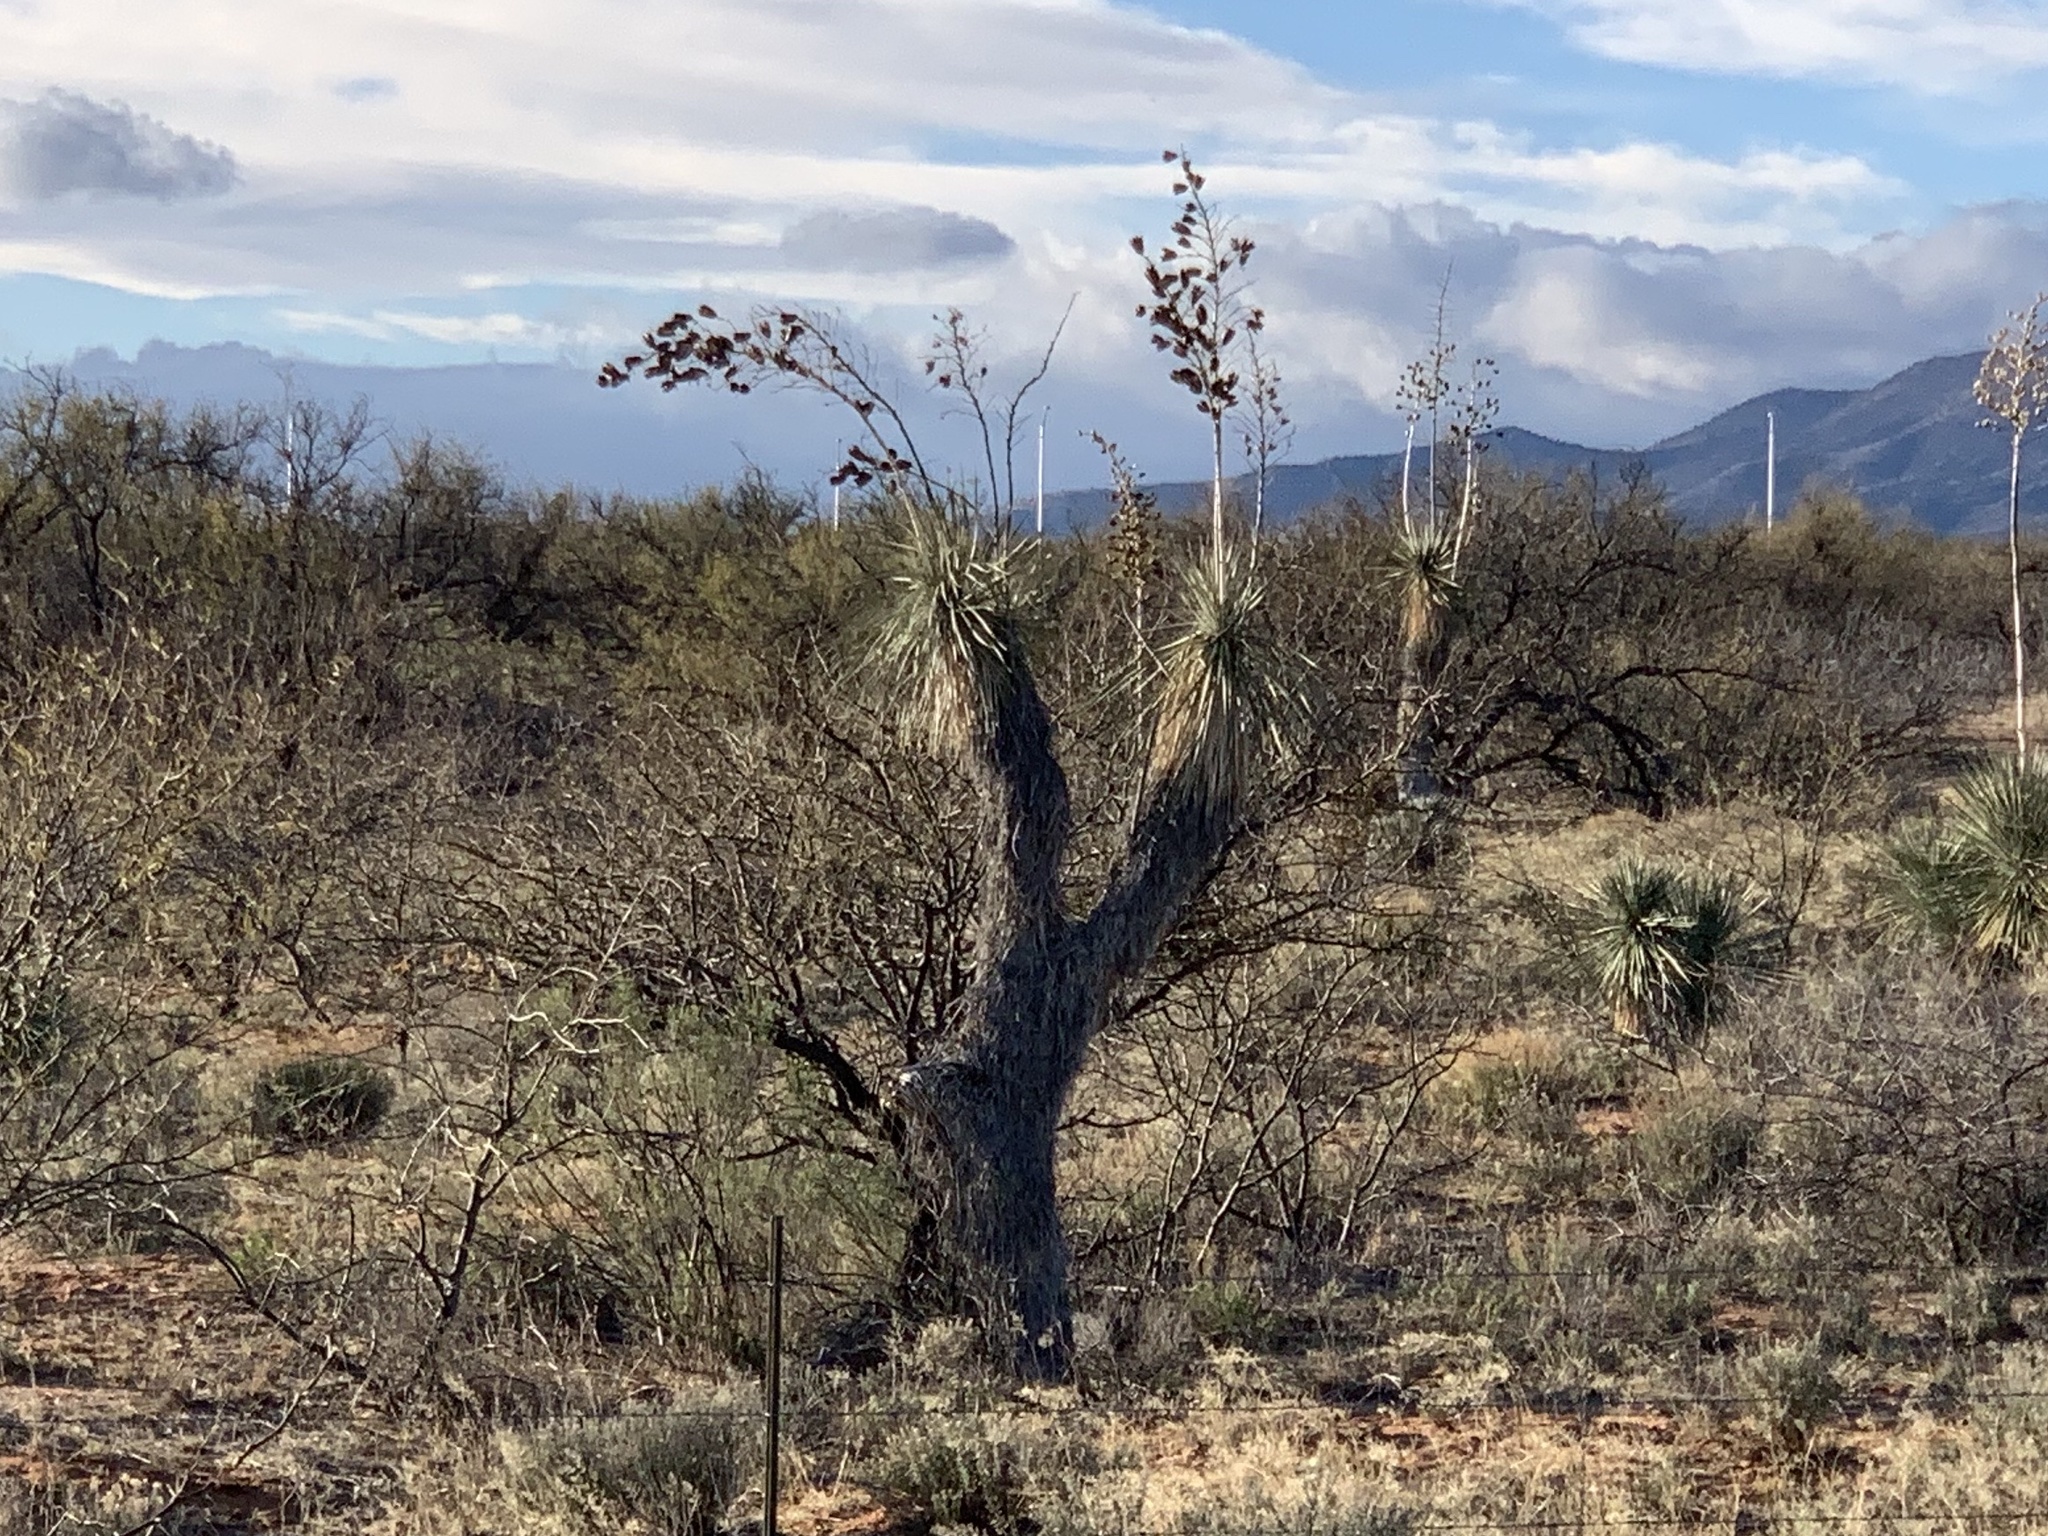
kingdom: Plantae
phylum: Tracheophyta
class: Liliopsida
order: Asparagales
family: Asparagaceae
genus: Yucca
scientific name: Yucca elata
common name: Palmella
